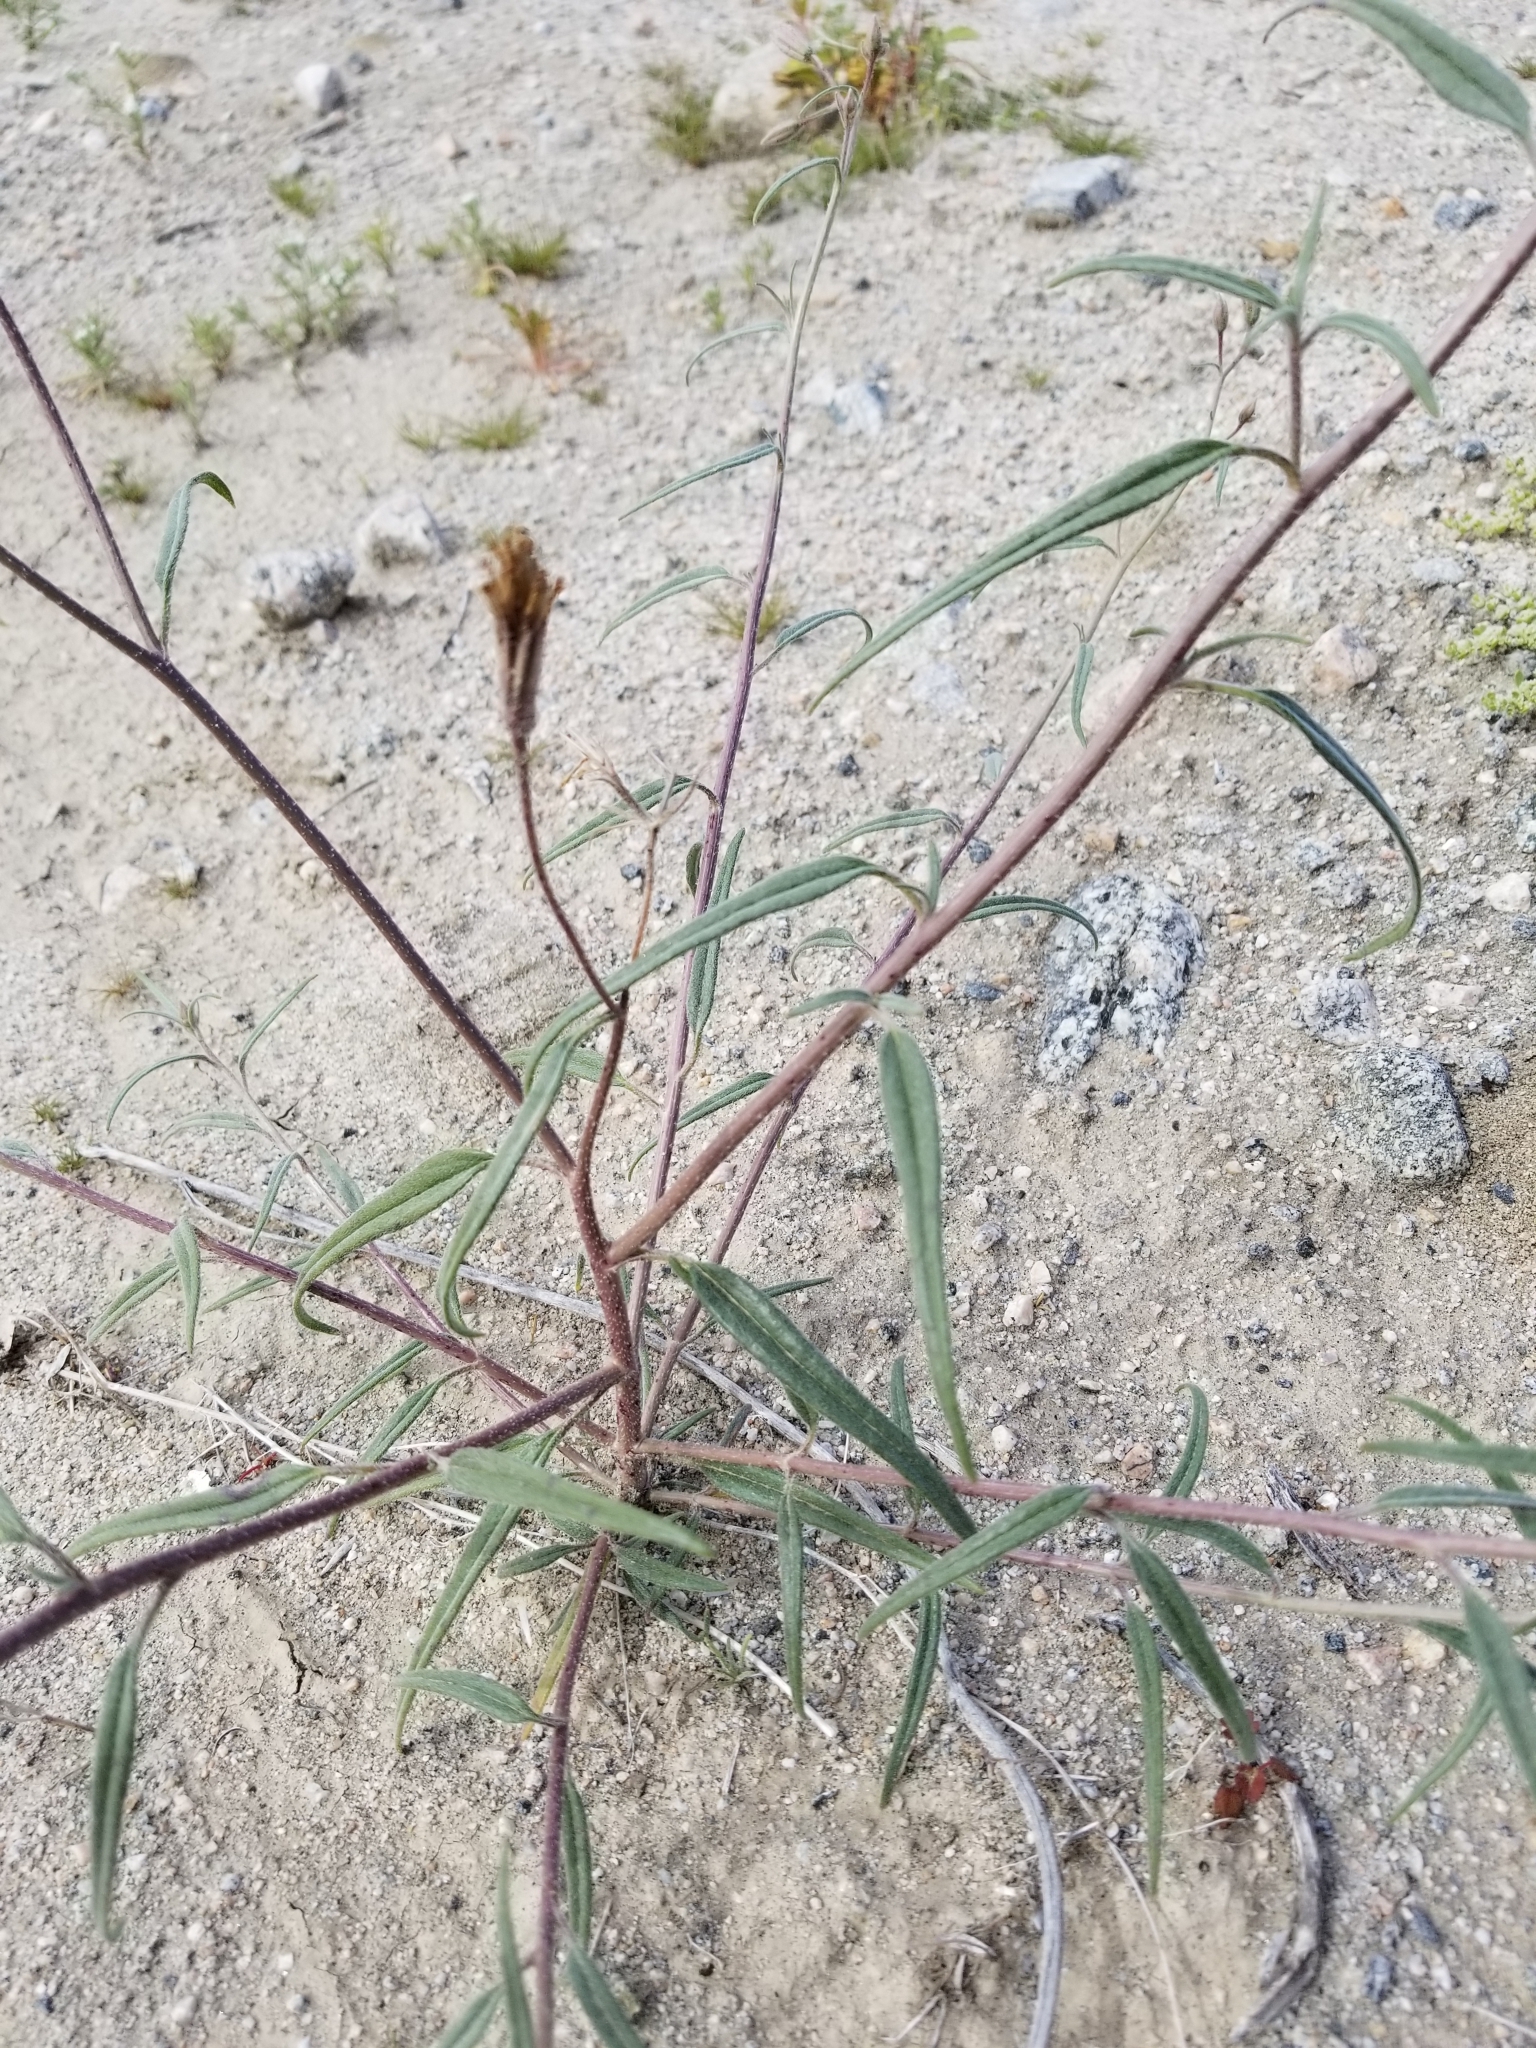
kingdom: Plantae
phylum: Tracheophyta
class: Magnoliopsida
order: Asterales
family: Asteraceae
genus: Palafoxia
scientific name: Palafoxia arida
